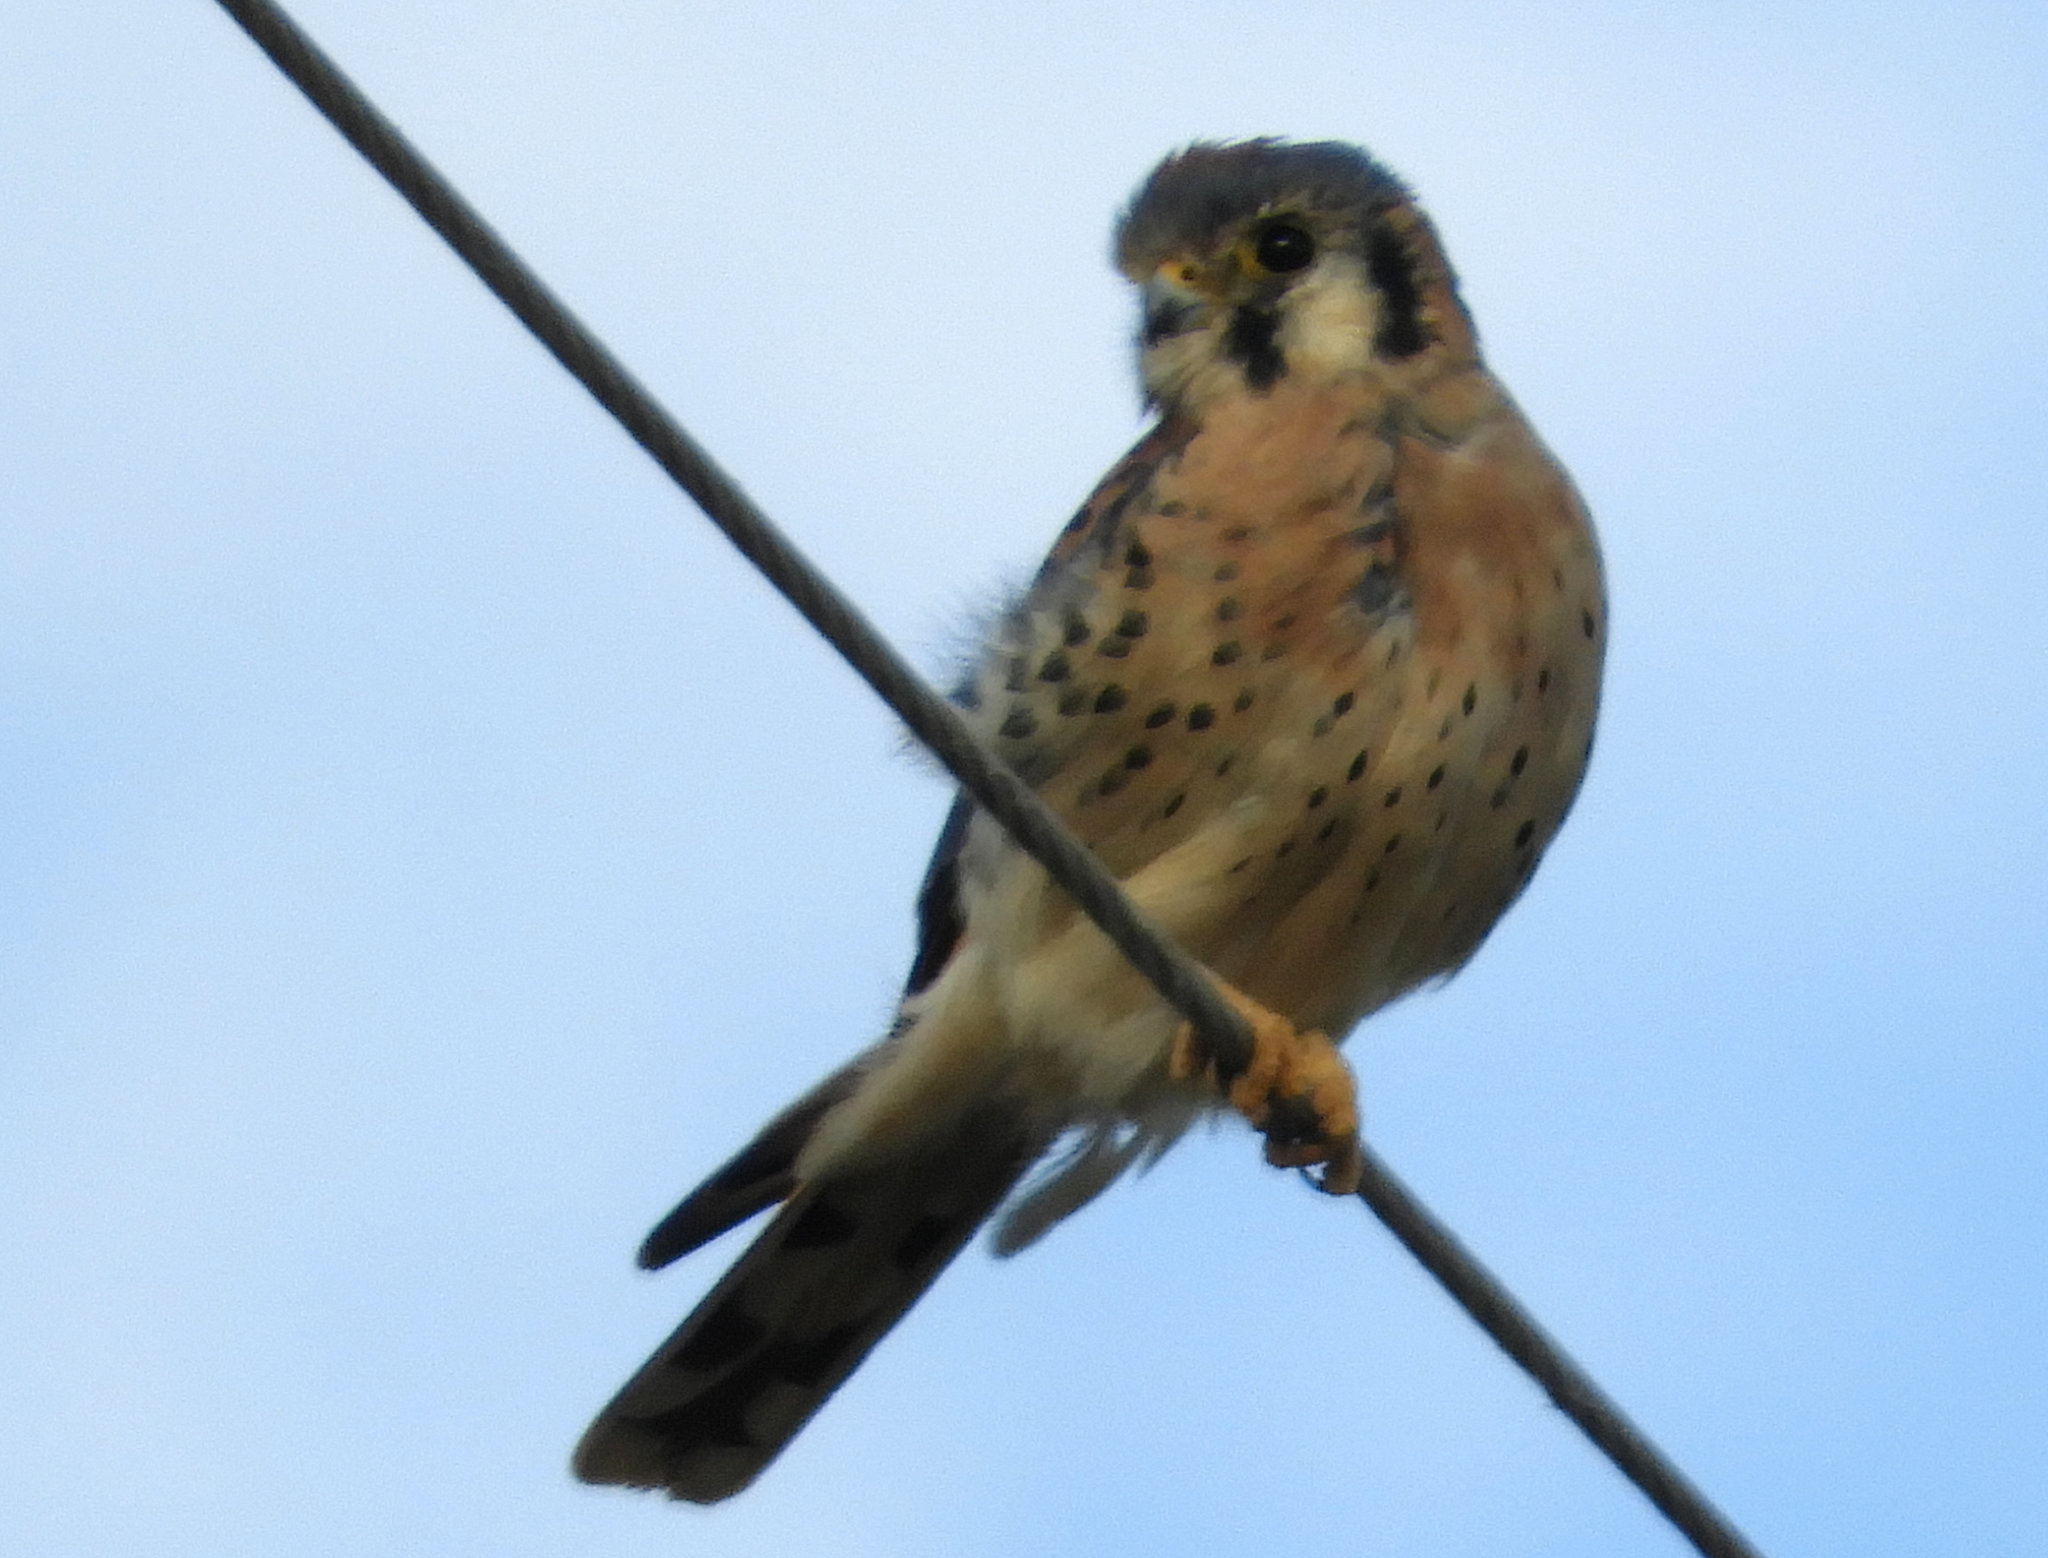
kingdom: Animalia
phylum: Chordata
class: Aves
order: Falconiformes
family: Falconidae
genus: Falco
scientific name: Falco sparverius
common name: American kestrel
